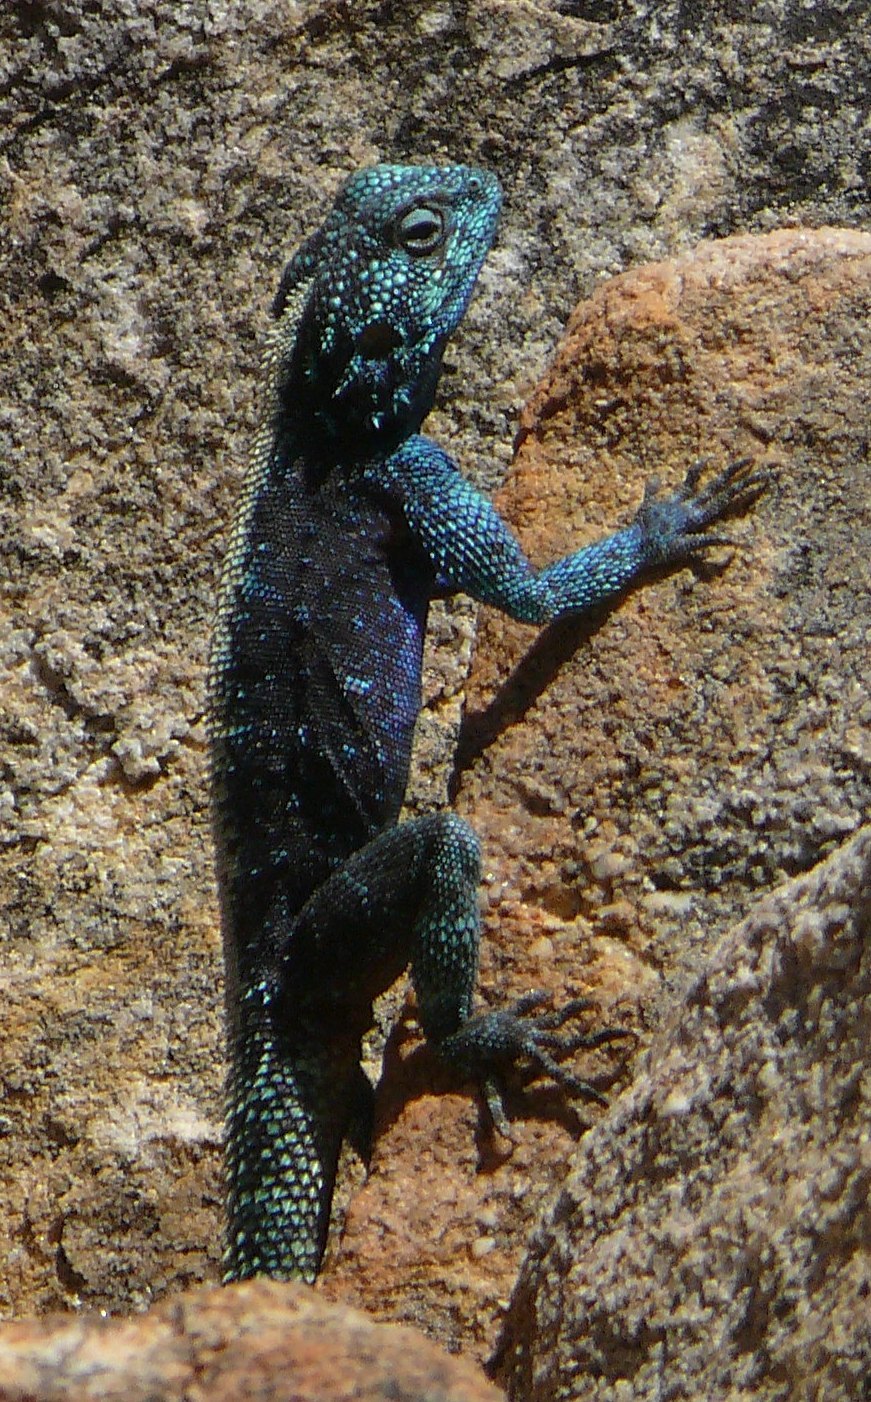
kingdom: Animalia
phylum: Chordata
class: Squamata
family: Agamidae
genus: Agama
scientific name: Agama atra
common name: Southern african rock agama
